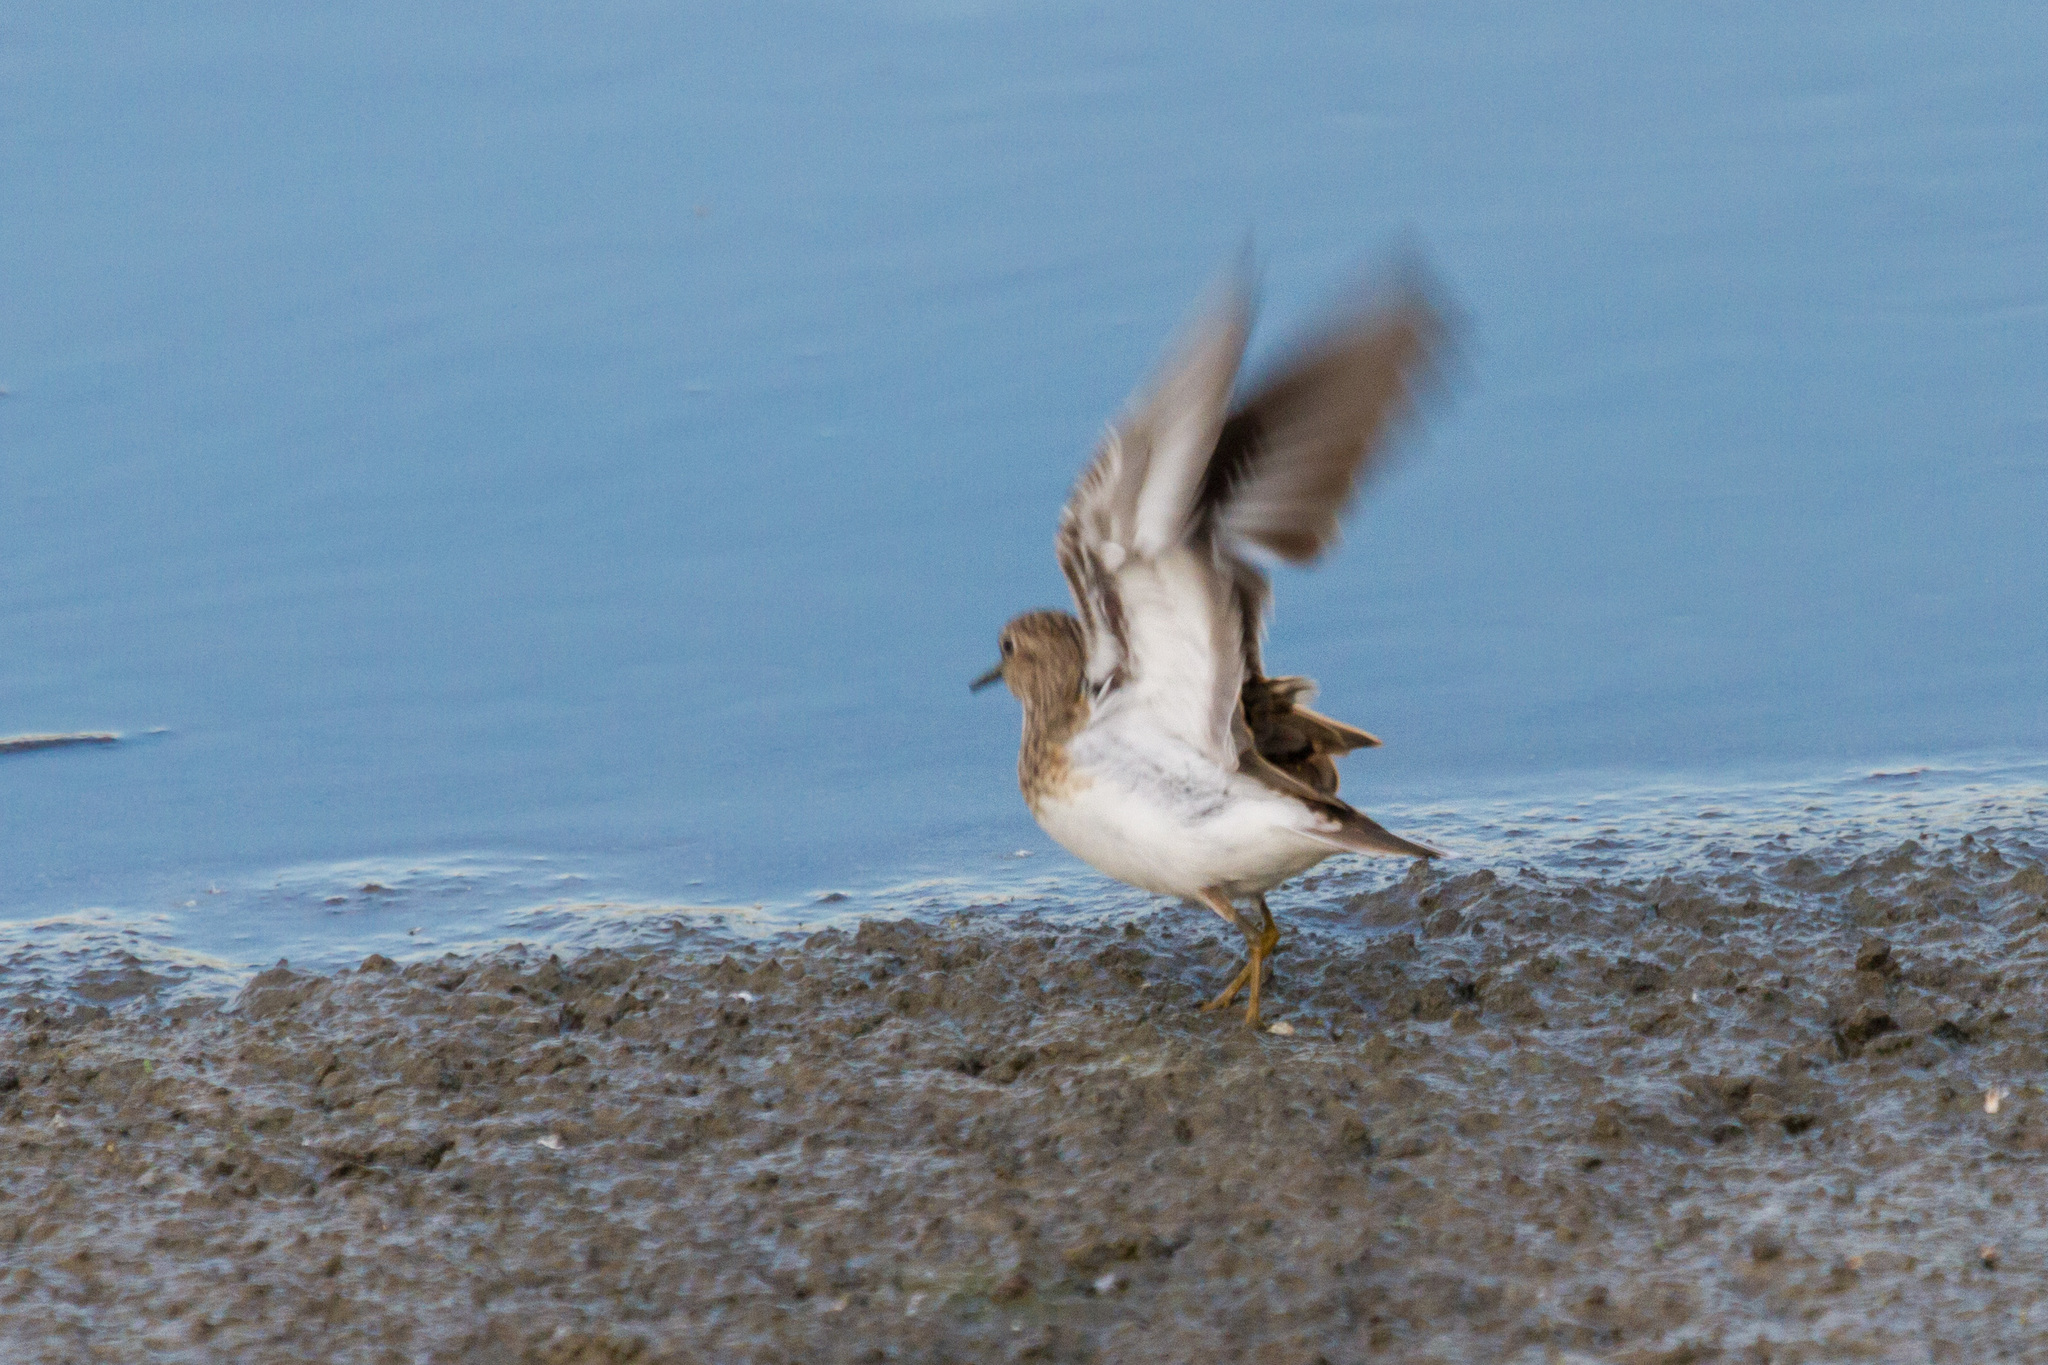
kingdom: Animalia
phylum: Chordata
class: Aves
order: Charadriiformes
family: Scolopacidae
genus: Calidris
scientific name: Calidris temminckii
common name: Temminck's stint
